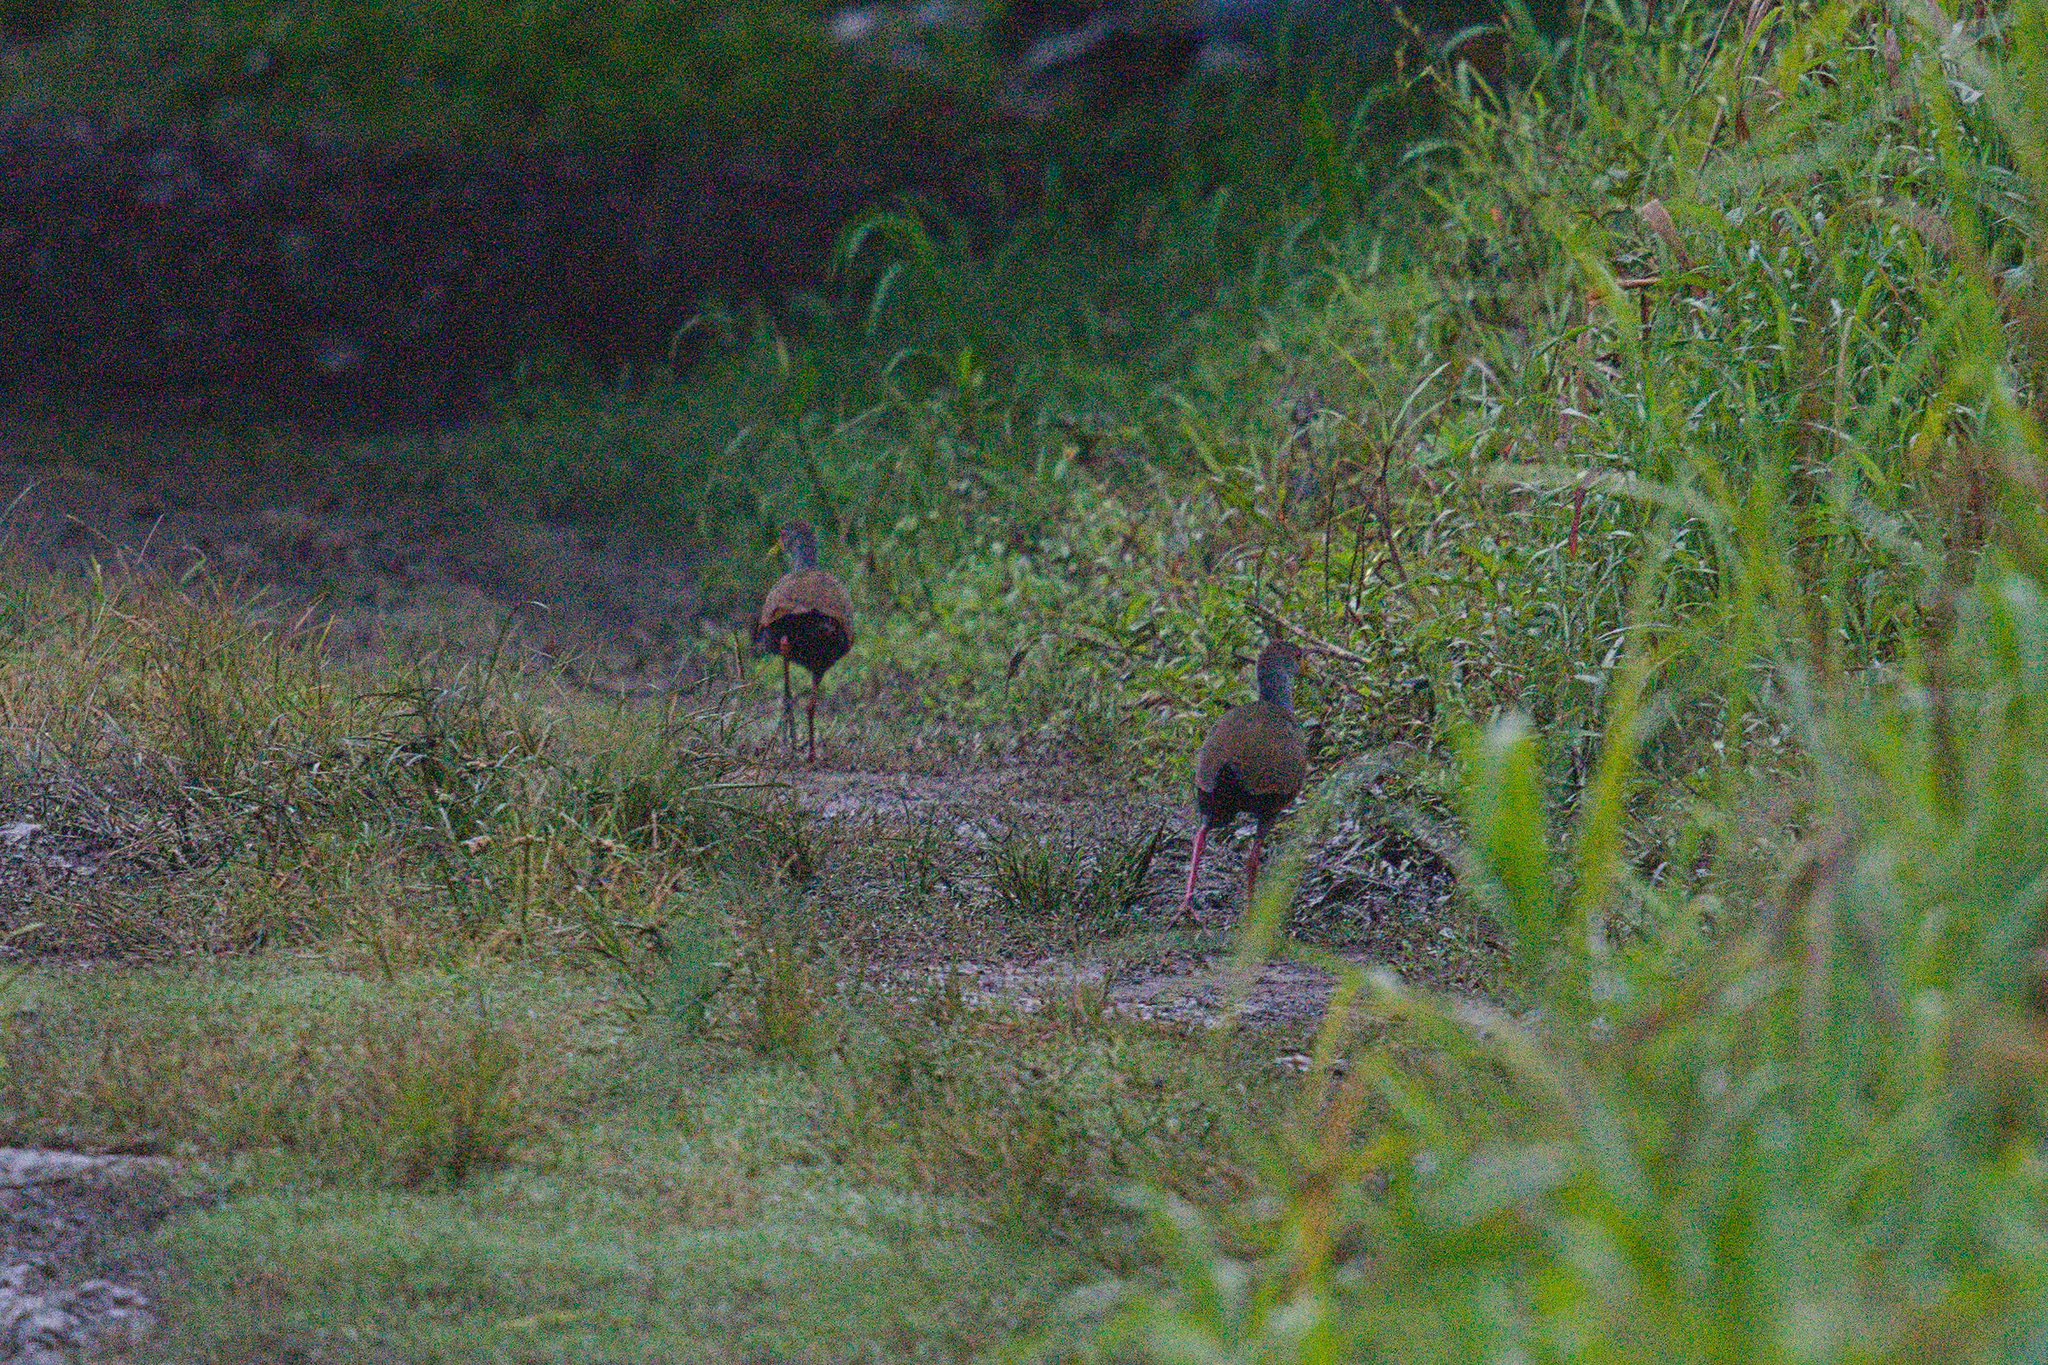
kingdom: Animalia
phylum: Chordata
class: Aves
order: Gruiformes
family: Rallidae
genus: Aramides
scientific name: Aramides cajanea
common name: Gray-necked wood-rail
